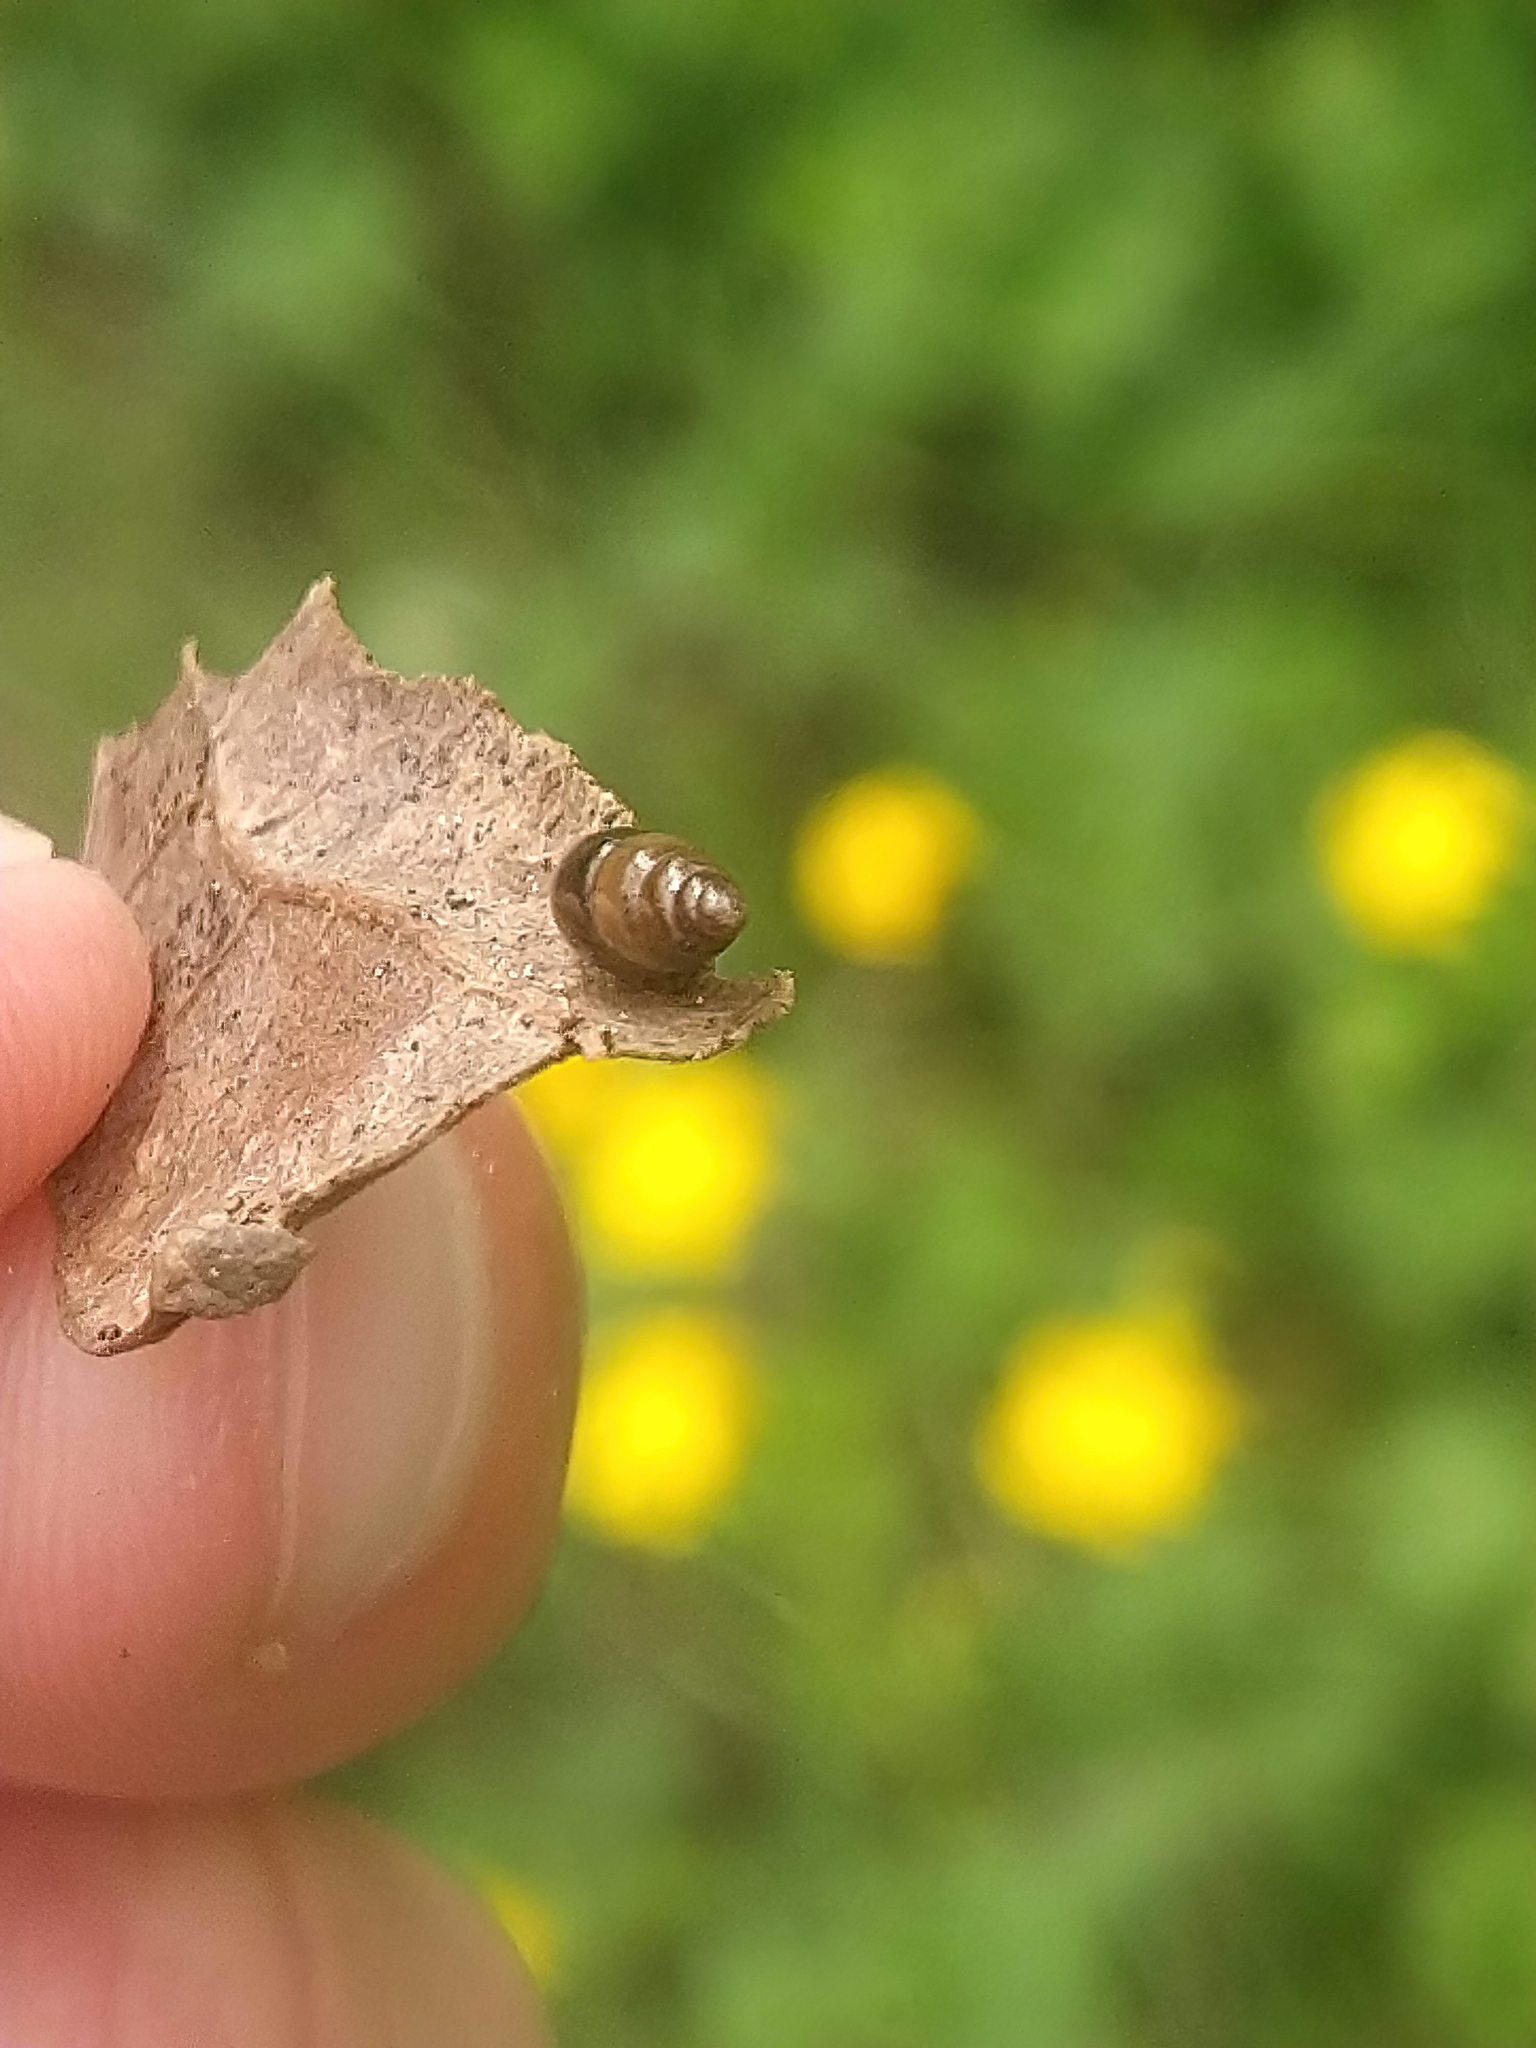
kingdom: Animalia
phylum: Mollusca
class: Gastropoda
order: Stylommatophora
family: Cochlicopidae
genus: Cochlicopa
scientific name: Cochlicopa lubrica
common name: Glossy pillar snail
